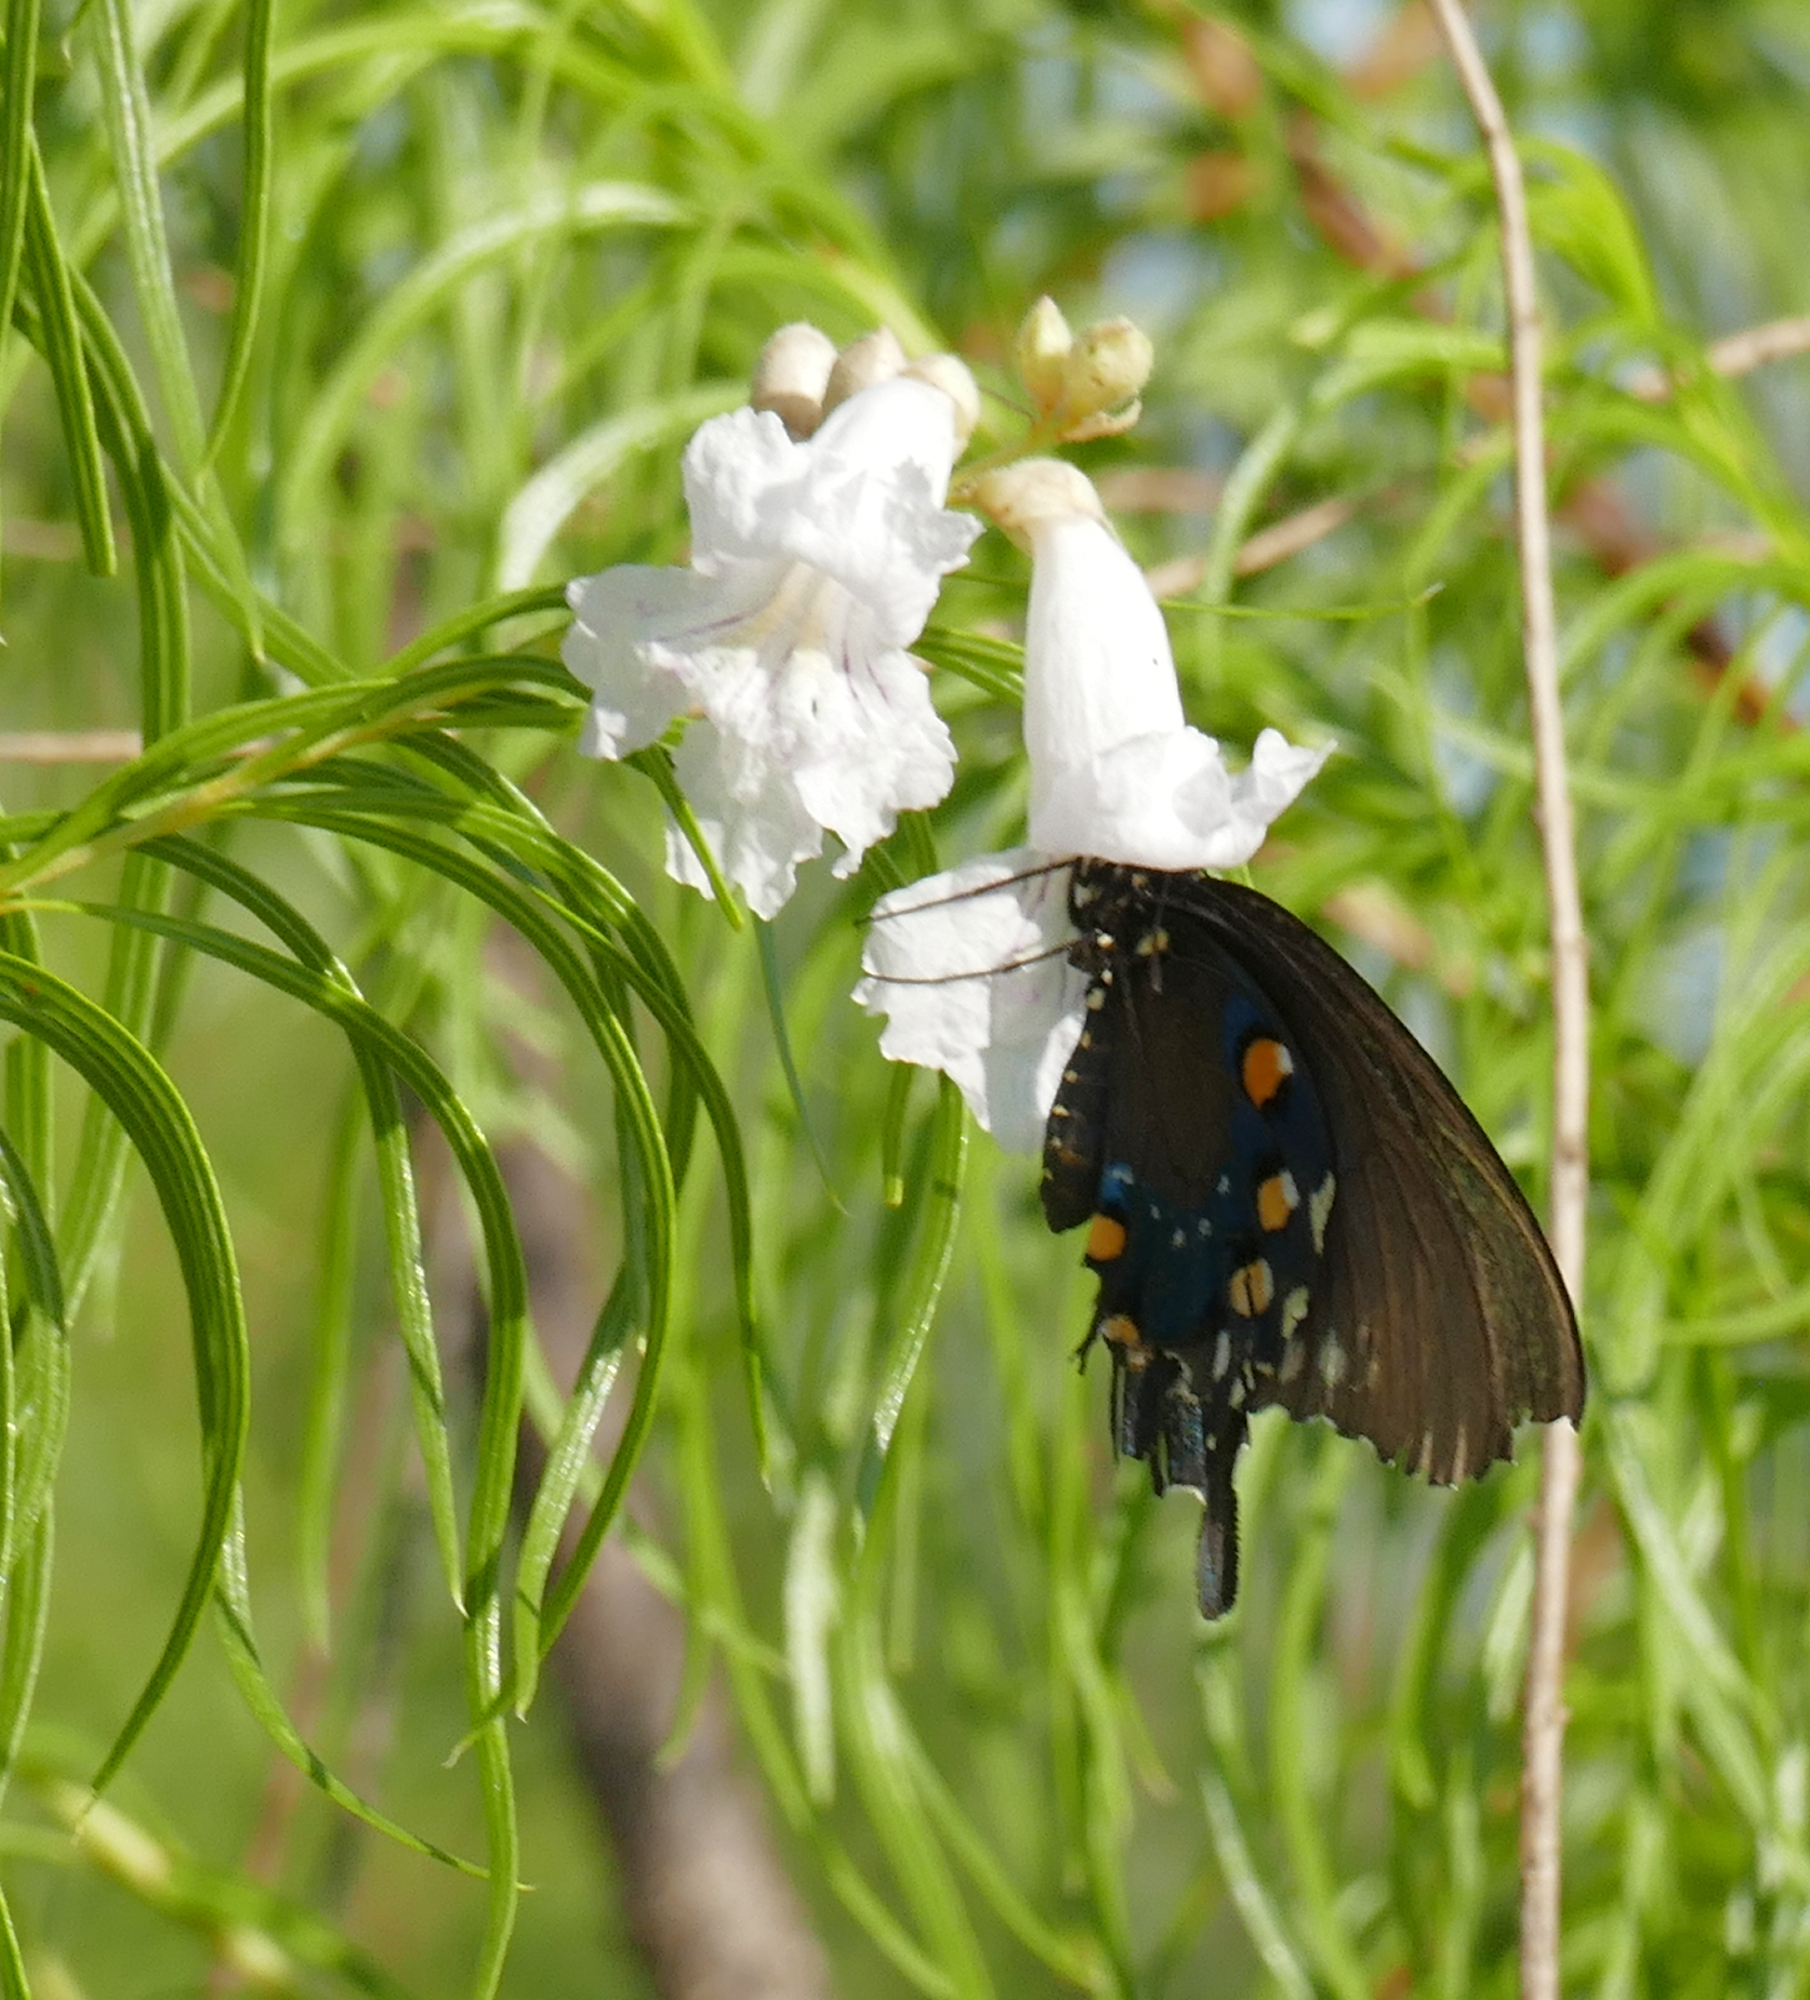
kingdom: Animalia
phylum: Arthropoda
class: Insecta
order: Lepidoptera
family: Papilionidae
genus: Battus
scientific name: Battus philenor
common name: Pipevine swallowtail
